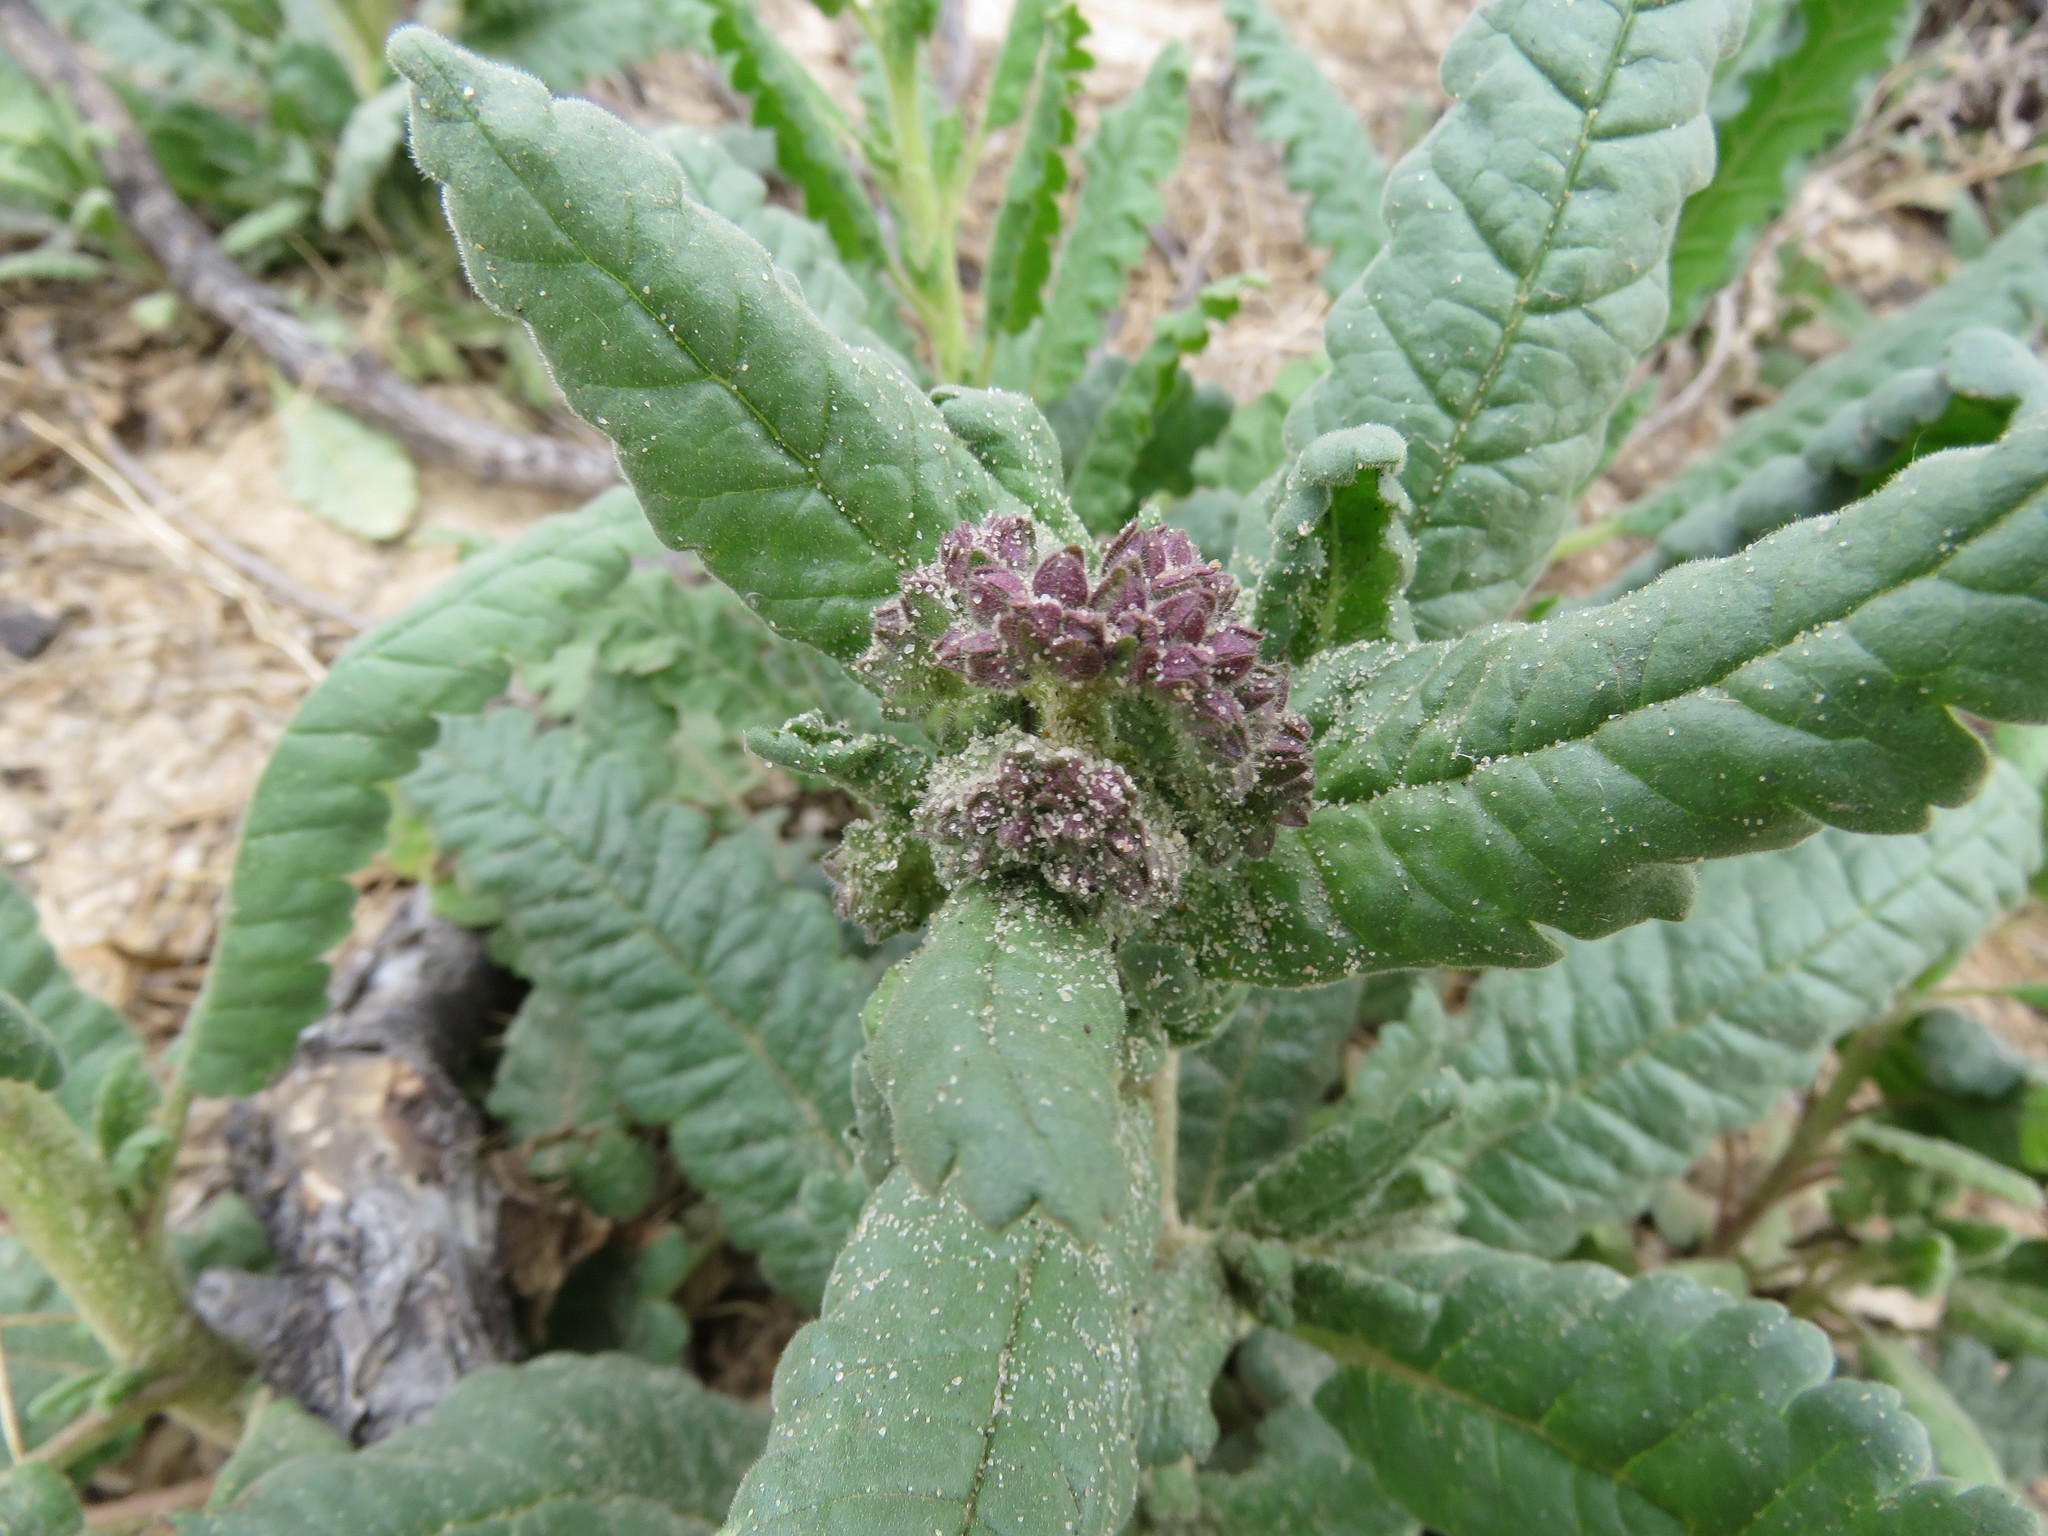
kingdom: Plantae
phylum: Tracheophyta
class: Magnoliopsida
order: Boraginales
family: Hydrophyllaceae
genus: Phacelia
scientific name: Phacelia integrifolia
